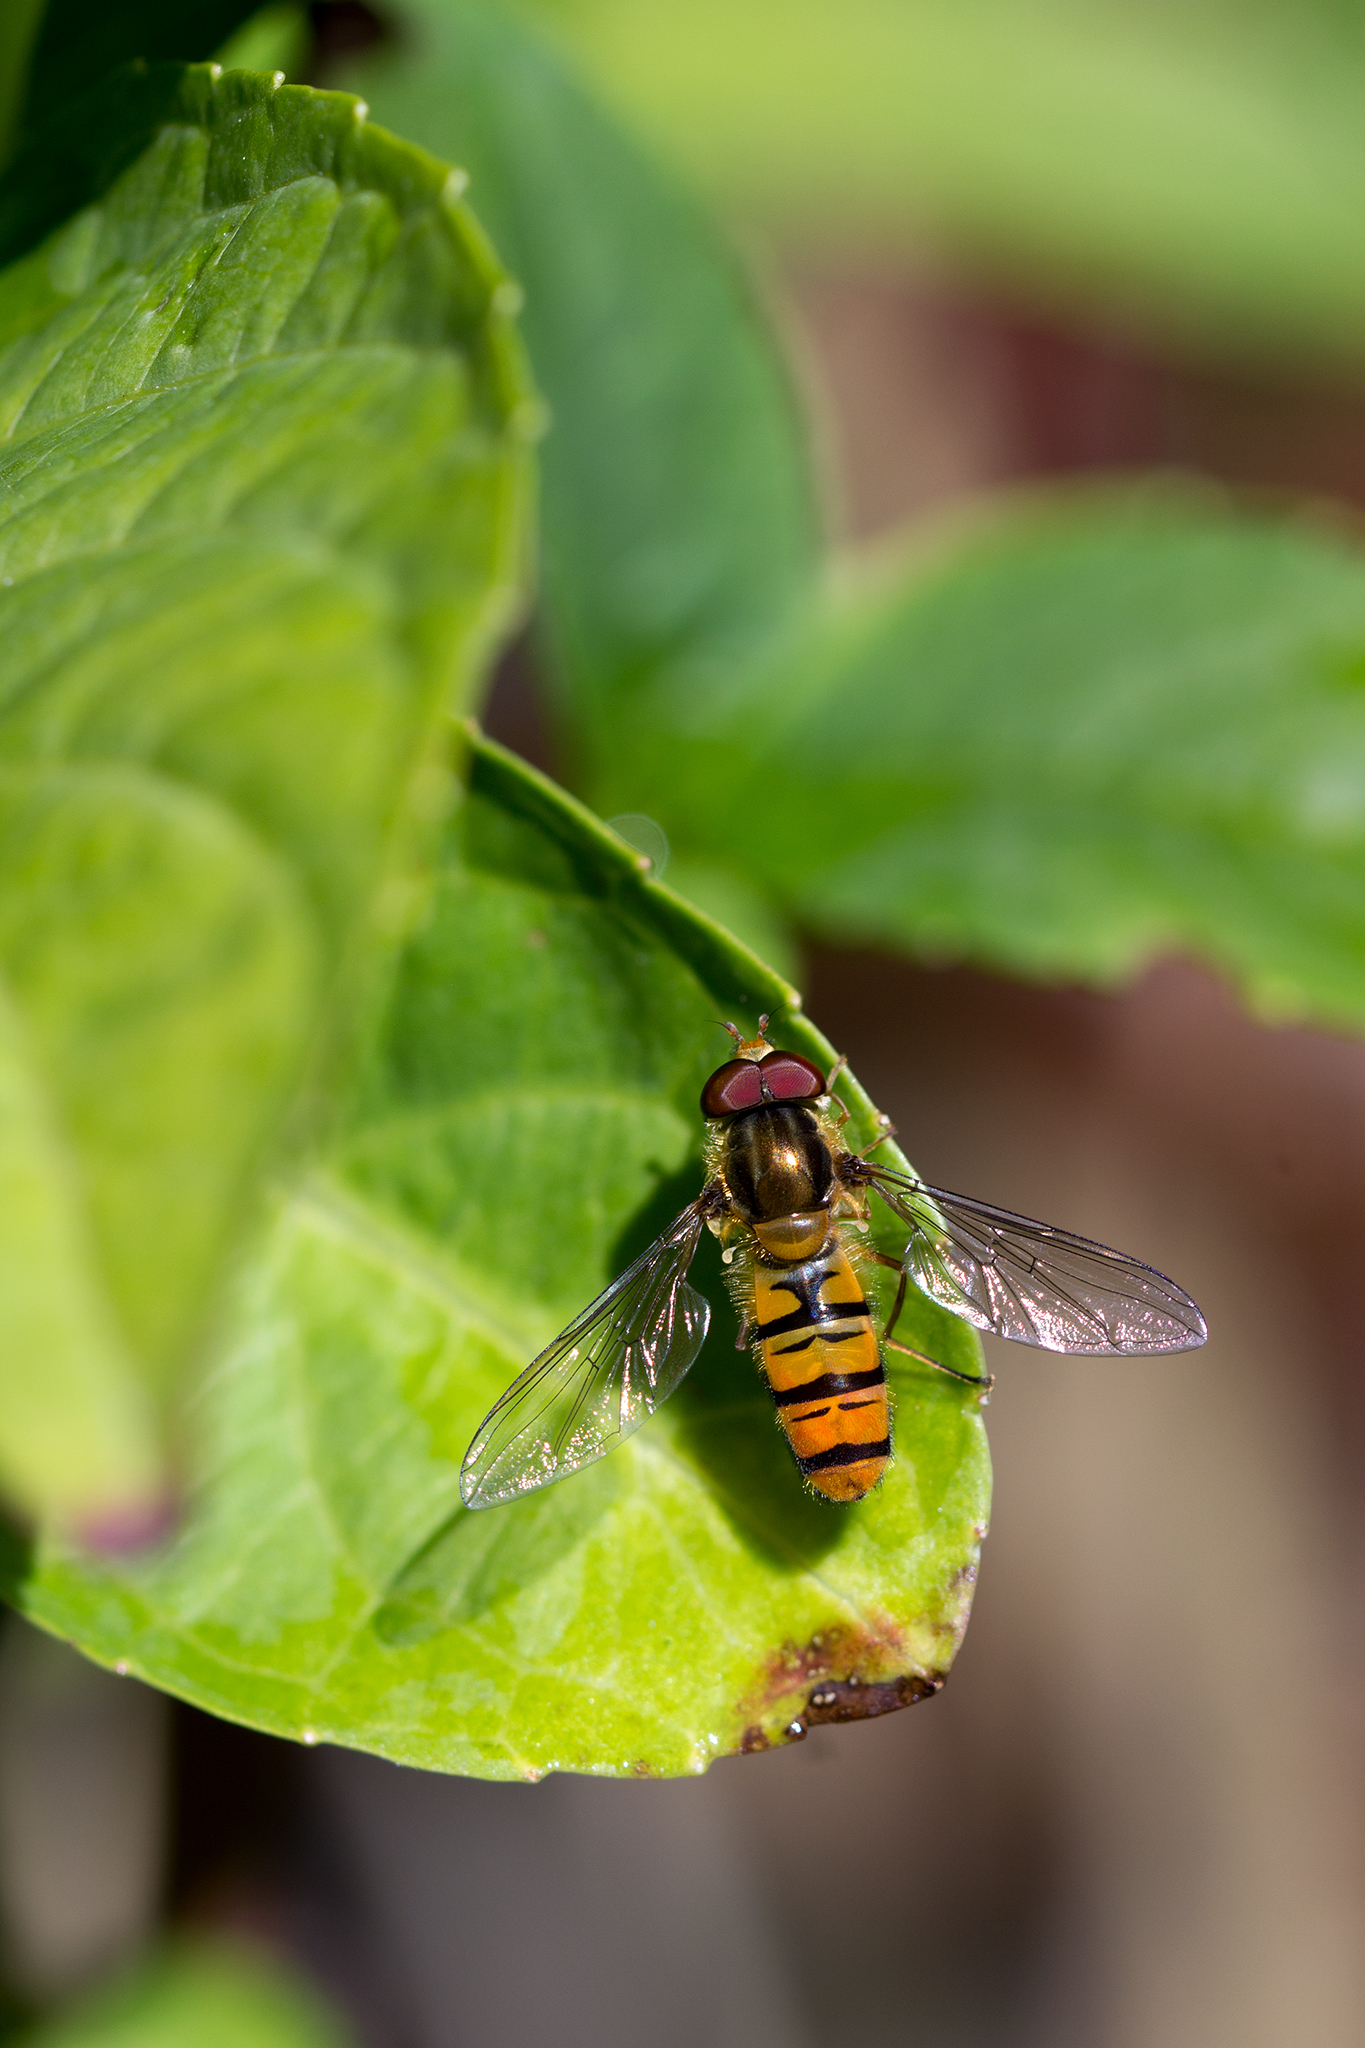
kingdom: Animalia
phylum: Arthropoda
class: Insecta
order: Diptera
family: Syrphidae
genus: Episyrphus
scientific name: Episyrphus balteatus
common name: Marmalade hoverfly
